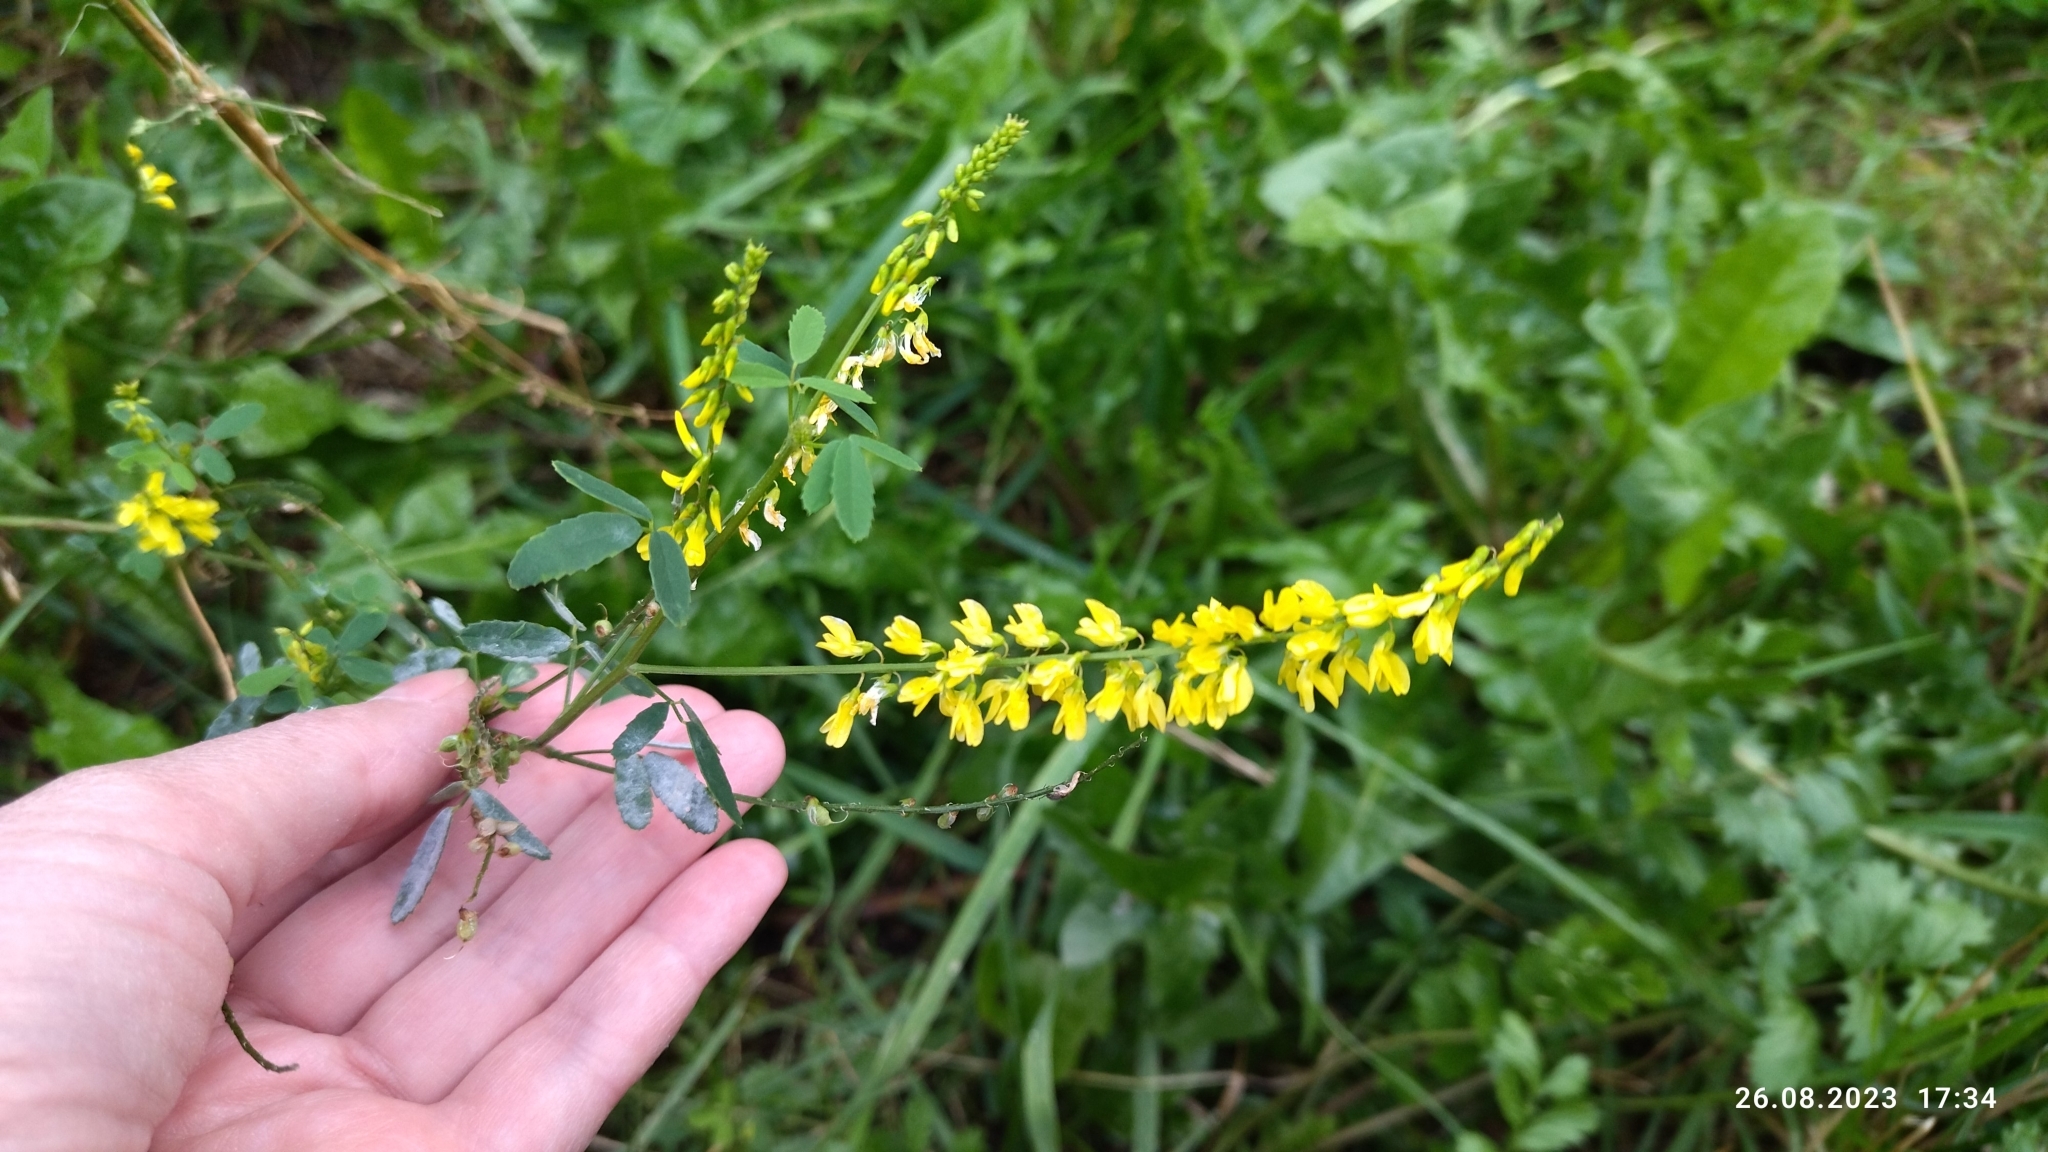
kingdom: Plantae
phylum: Tracheophyta
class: Magnoliopsida
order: Fabales
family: Fabaceae
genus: Melilotus
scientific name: Melilotus officinalis
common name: Sweetclover
